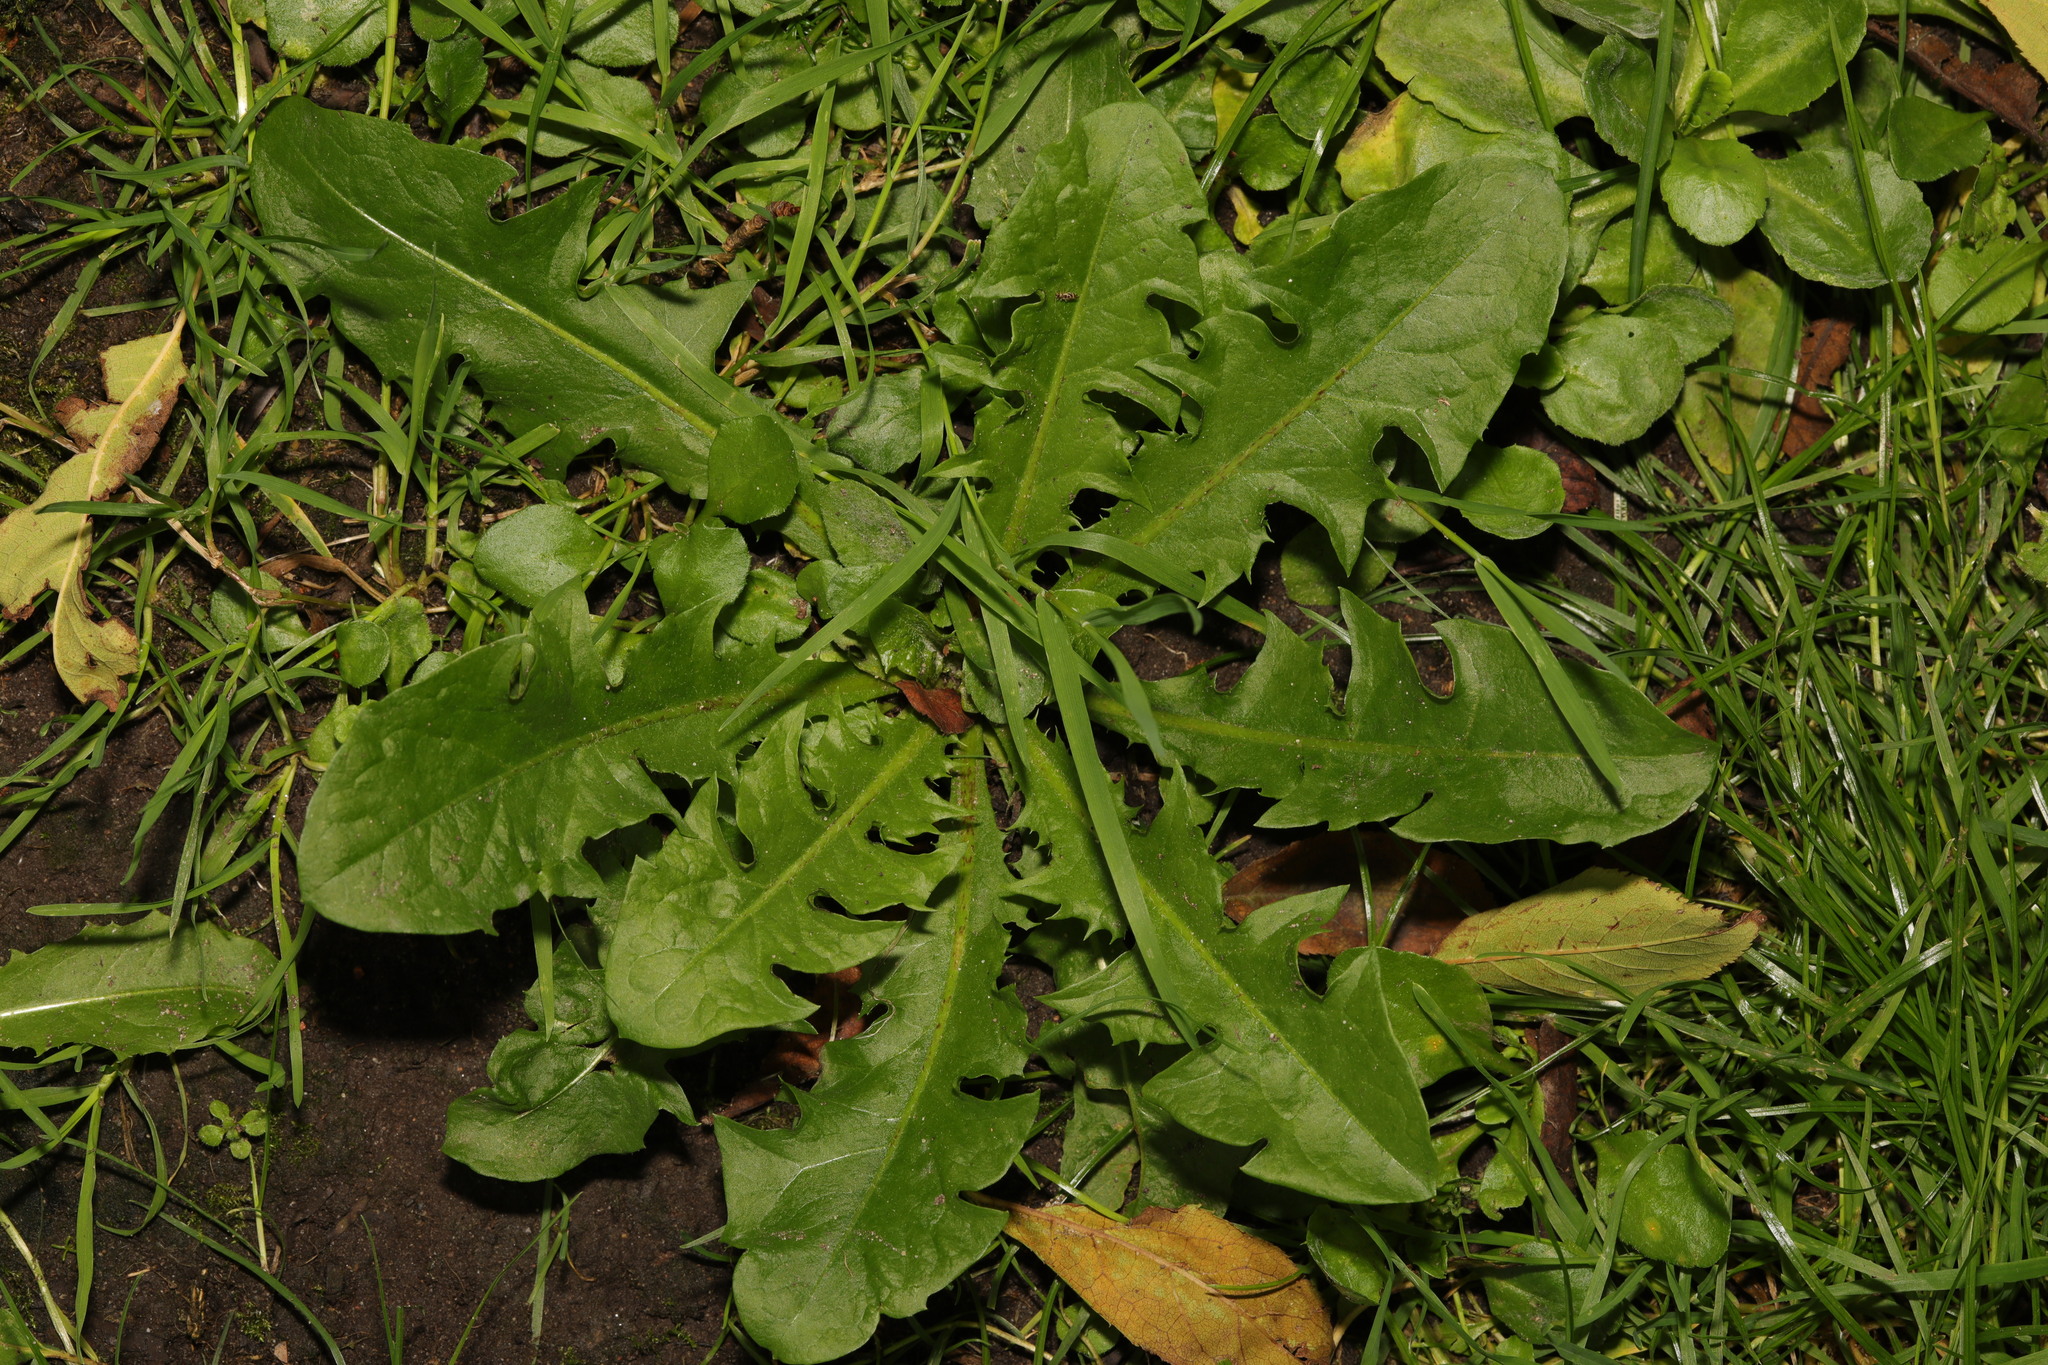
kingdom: Plantae
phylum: Tracheophyta
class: Magnoliopsida
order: Asterales
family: Asteraceae
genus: Taraxacum
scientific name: Taraxacum officinale
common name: Common dandelion
